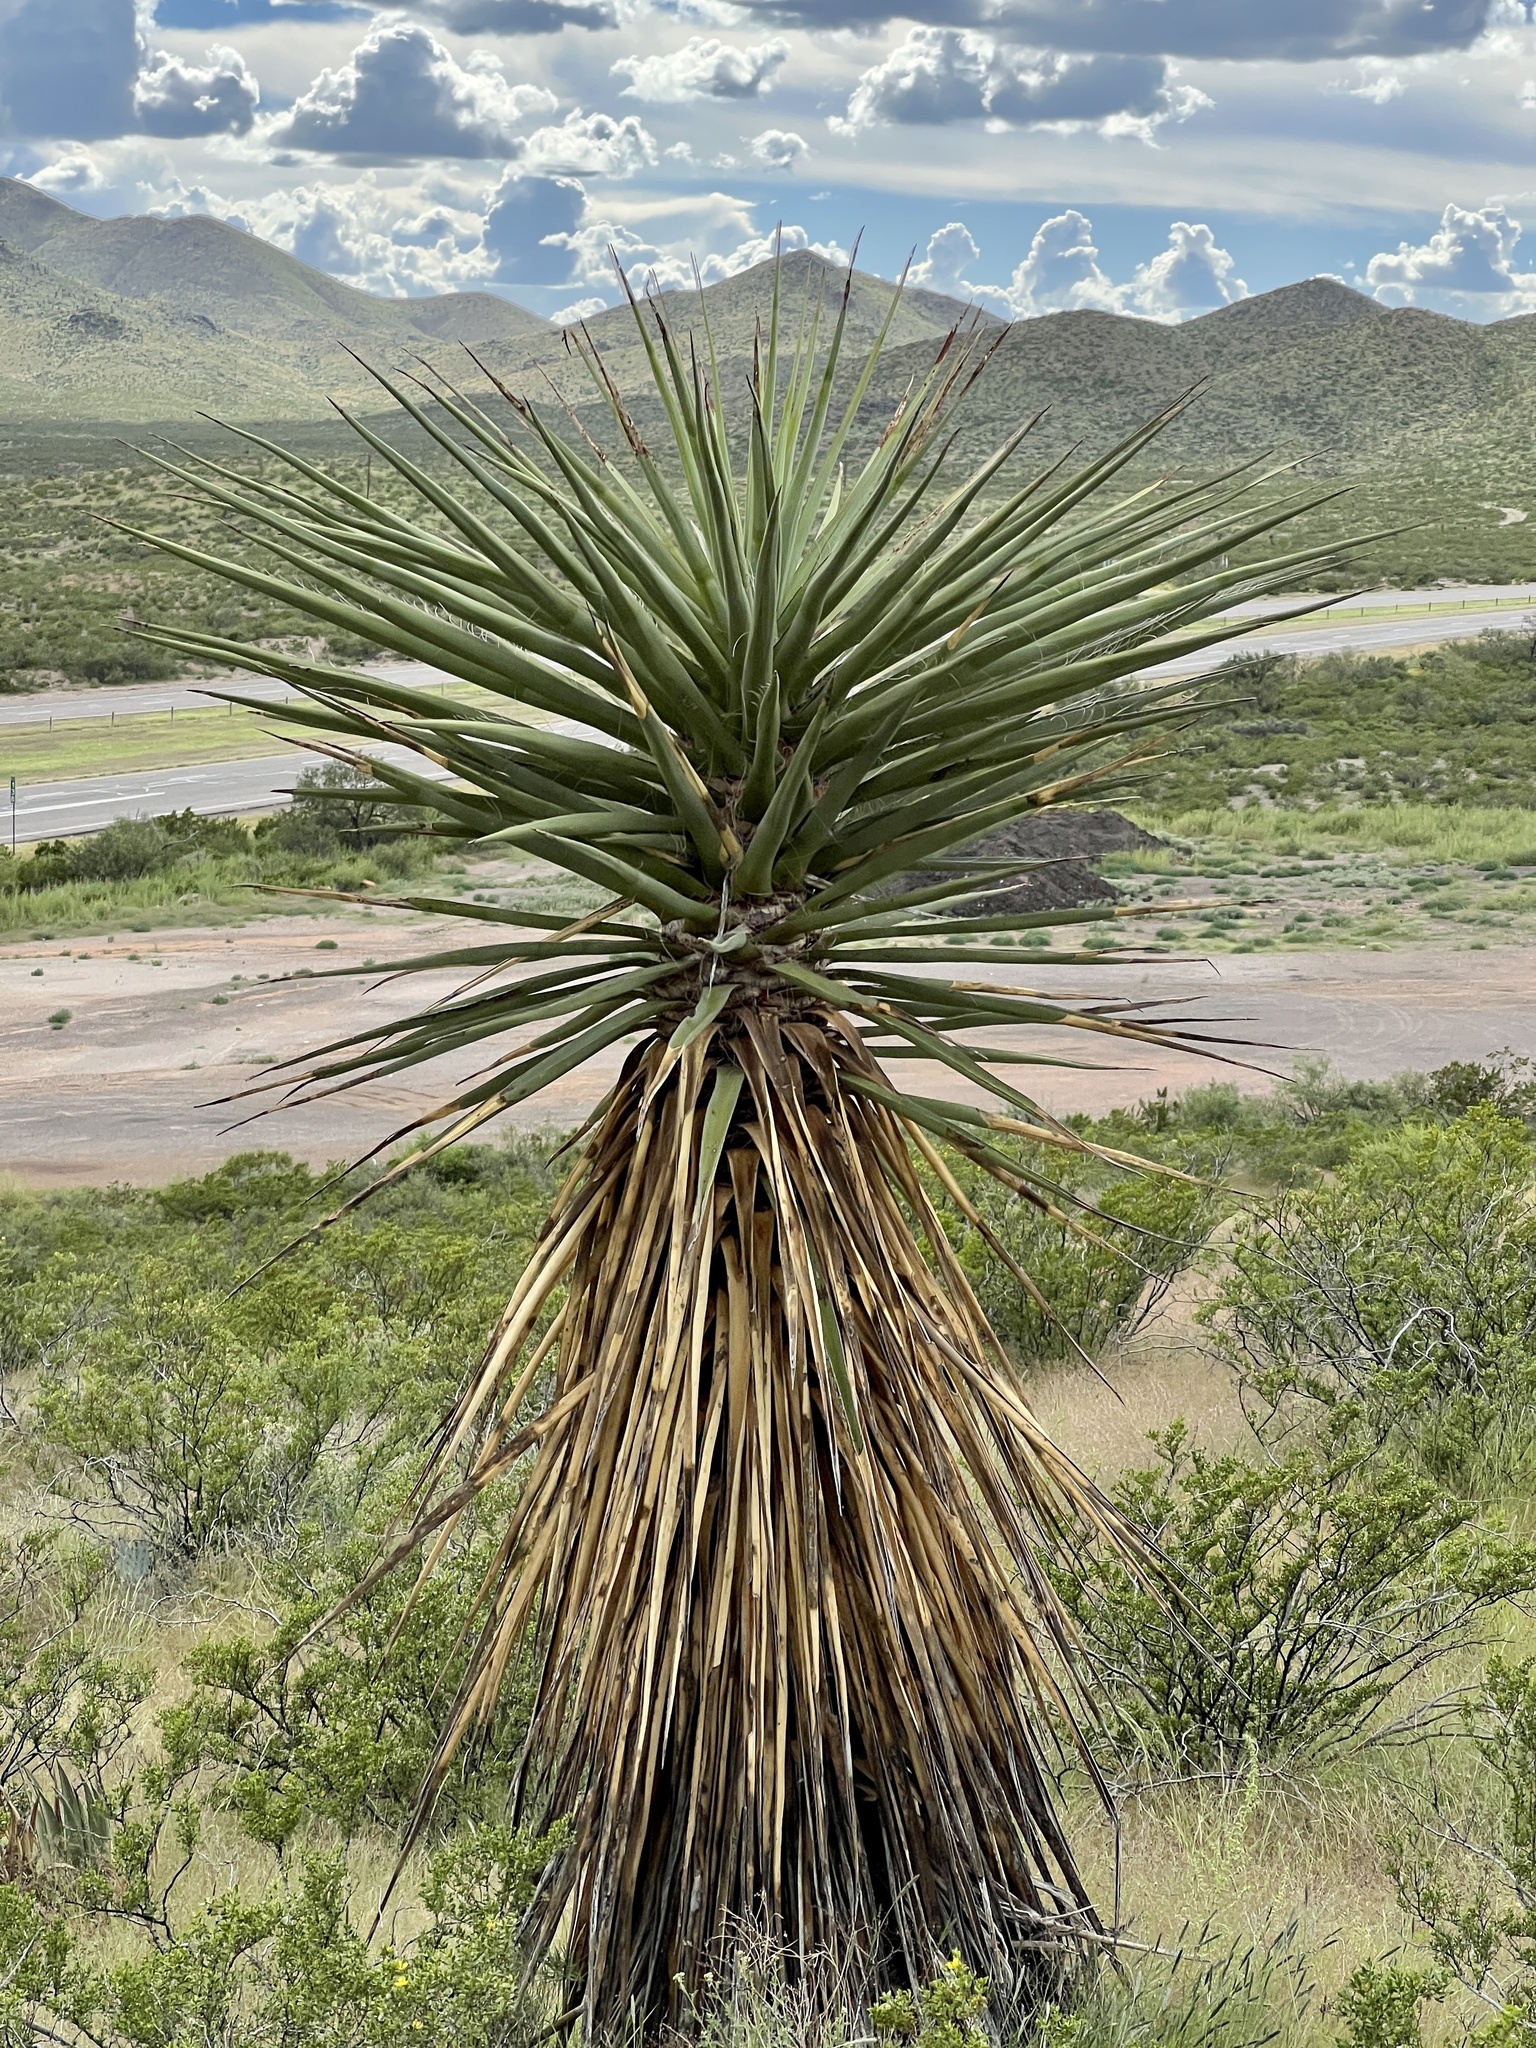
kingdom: Plantae
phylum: Tracheophyta
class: Liliopsida
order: Asparagales
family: Asparagaceae
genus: Yucca
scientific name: Yucca treculiana
